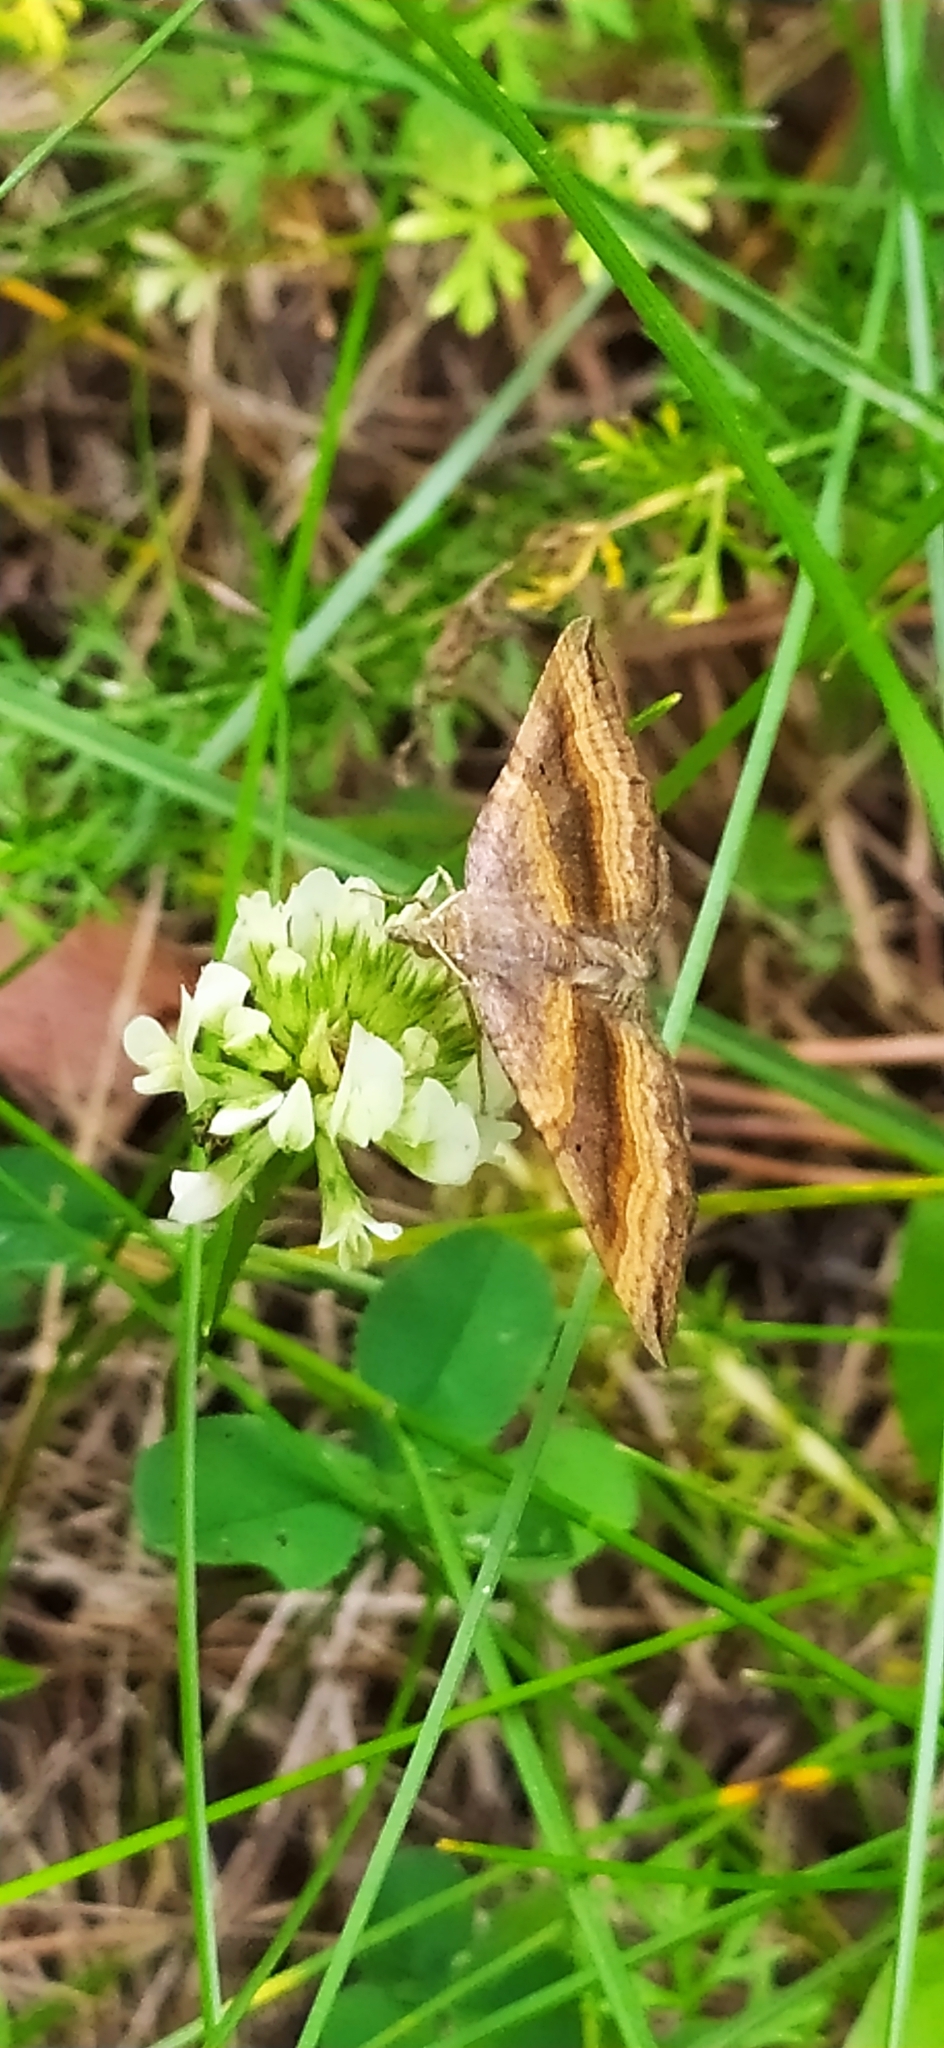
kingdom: Animalia
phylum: Arthropoda
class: Insecta
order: Lepidoptera
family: Geometridae
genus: Scotopteryx
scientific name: Scotopteryx chenopodiata
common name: Shaded broad-bar
